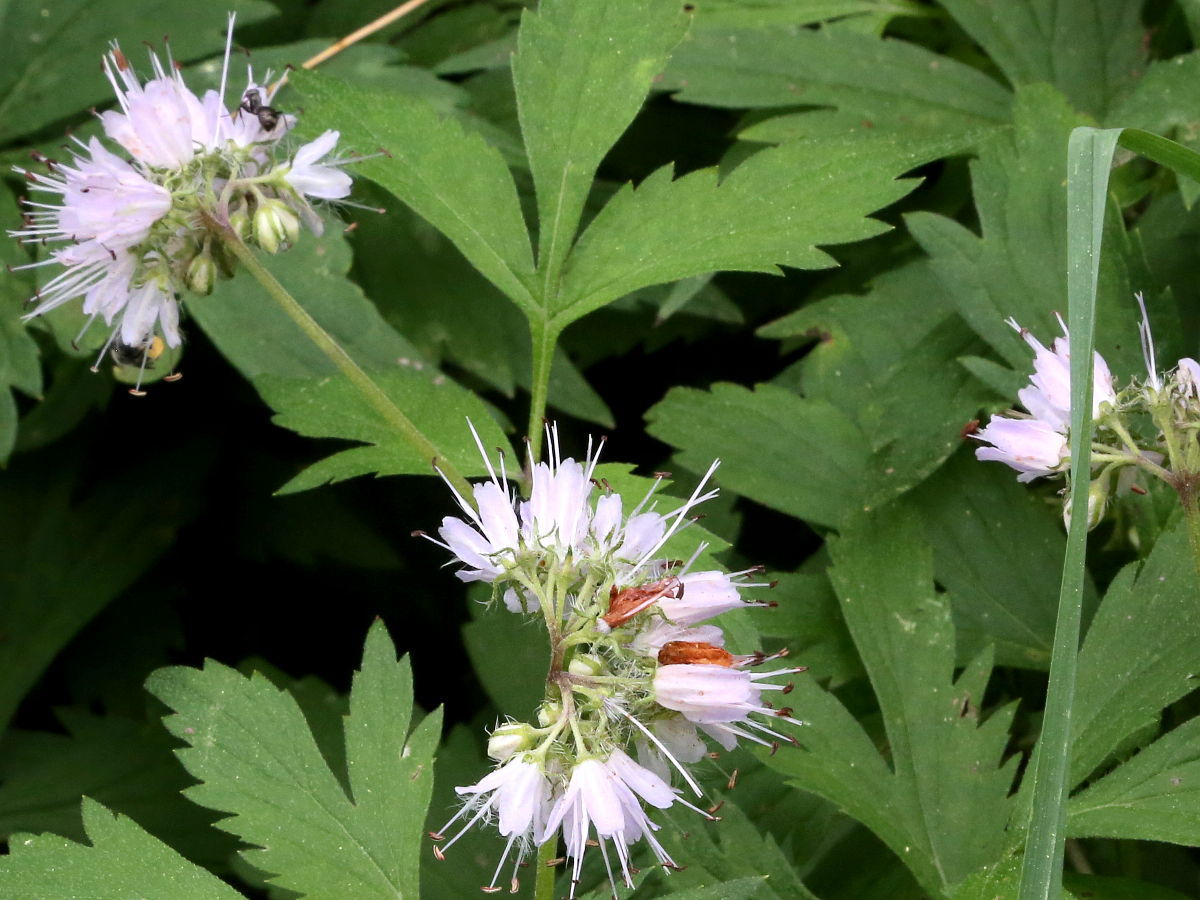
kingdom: Plantae
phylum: Tracheophyta
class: Magnoliopsida
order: Boraginales
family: Hydrophyllaceae
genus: Hydrophyllum
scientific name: Hydrophyllum virginianum
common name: Virginia waterleaf
